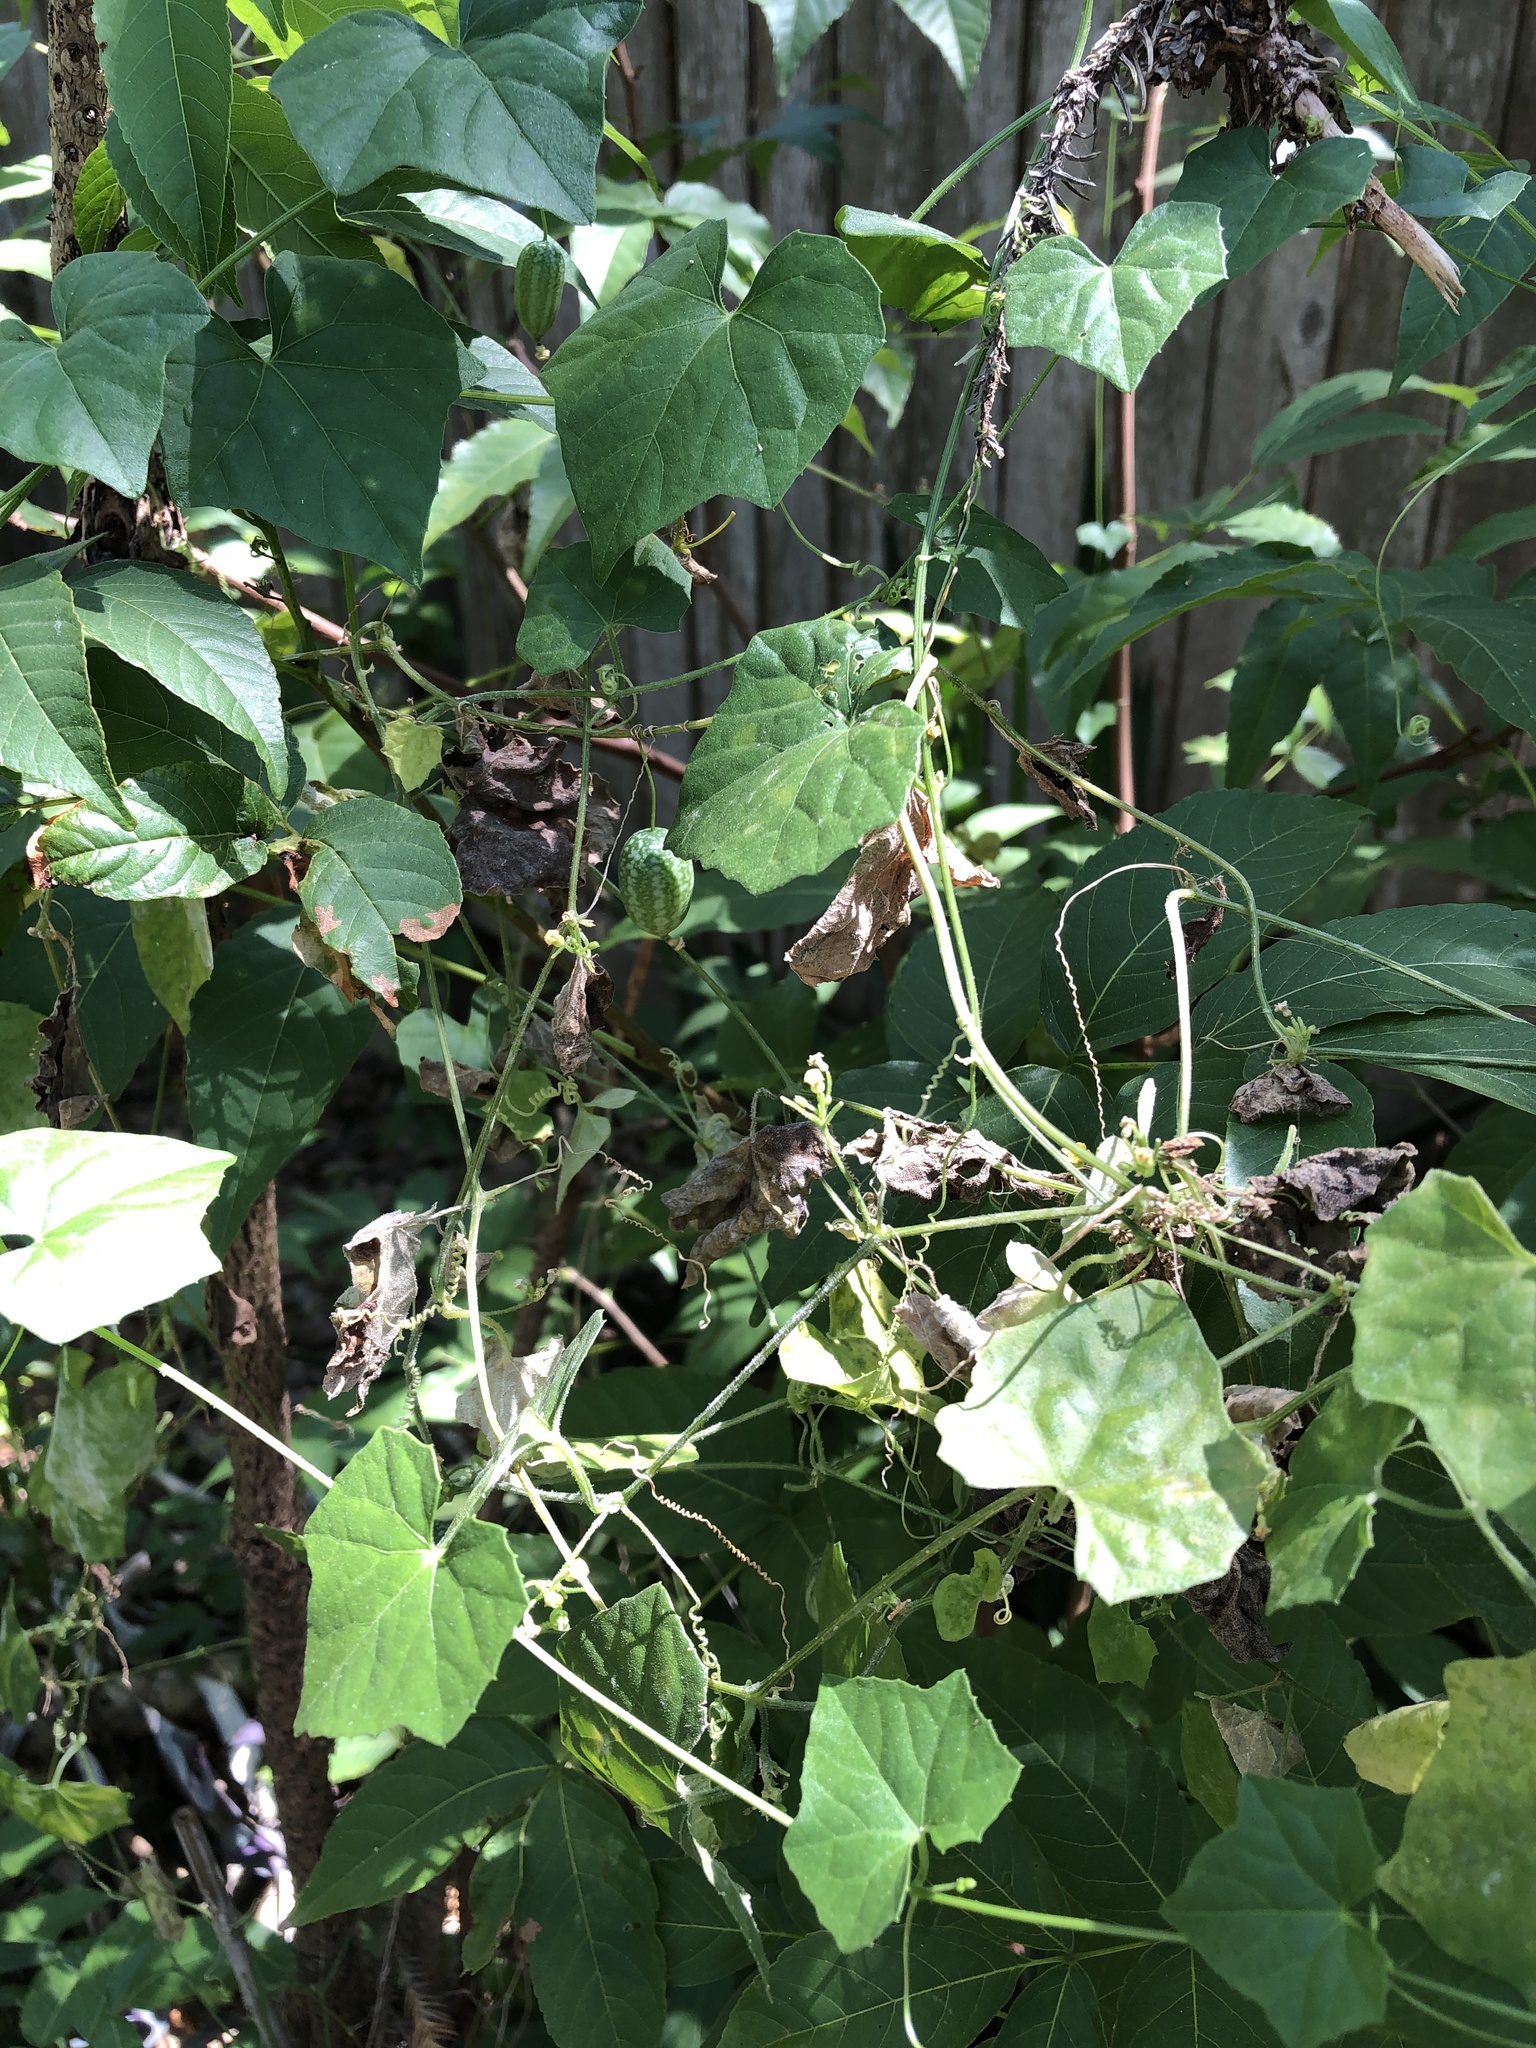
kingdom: Plantae
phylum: Tracheophyta
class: Magnoliopsida
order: Cucurbitales
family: Cucurbitaceae
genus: Melothria
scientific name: Melothria pendula
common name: Creeping-cucumber
